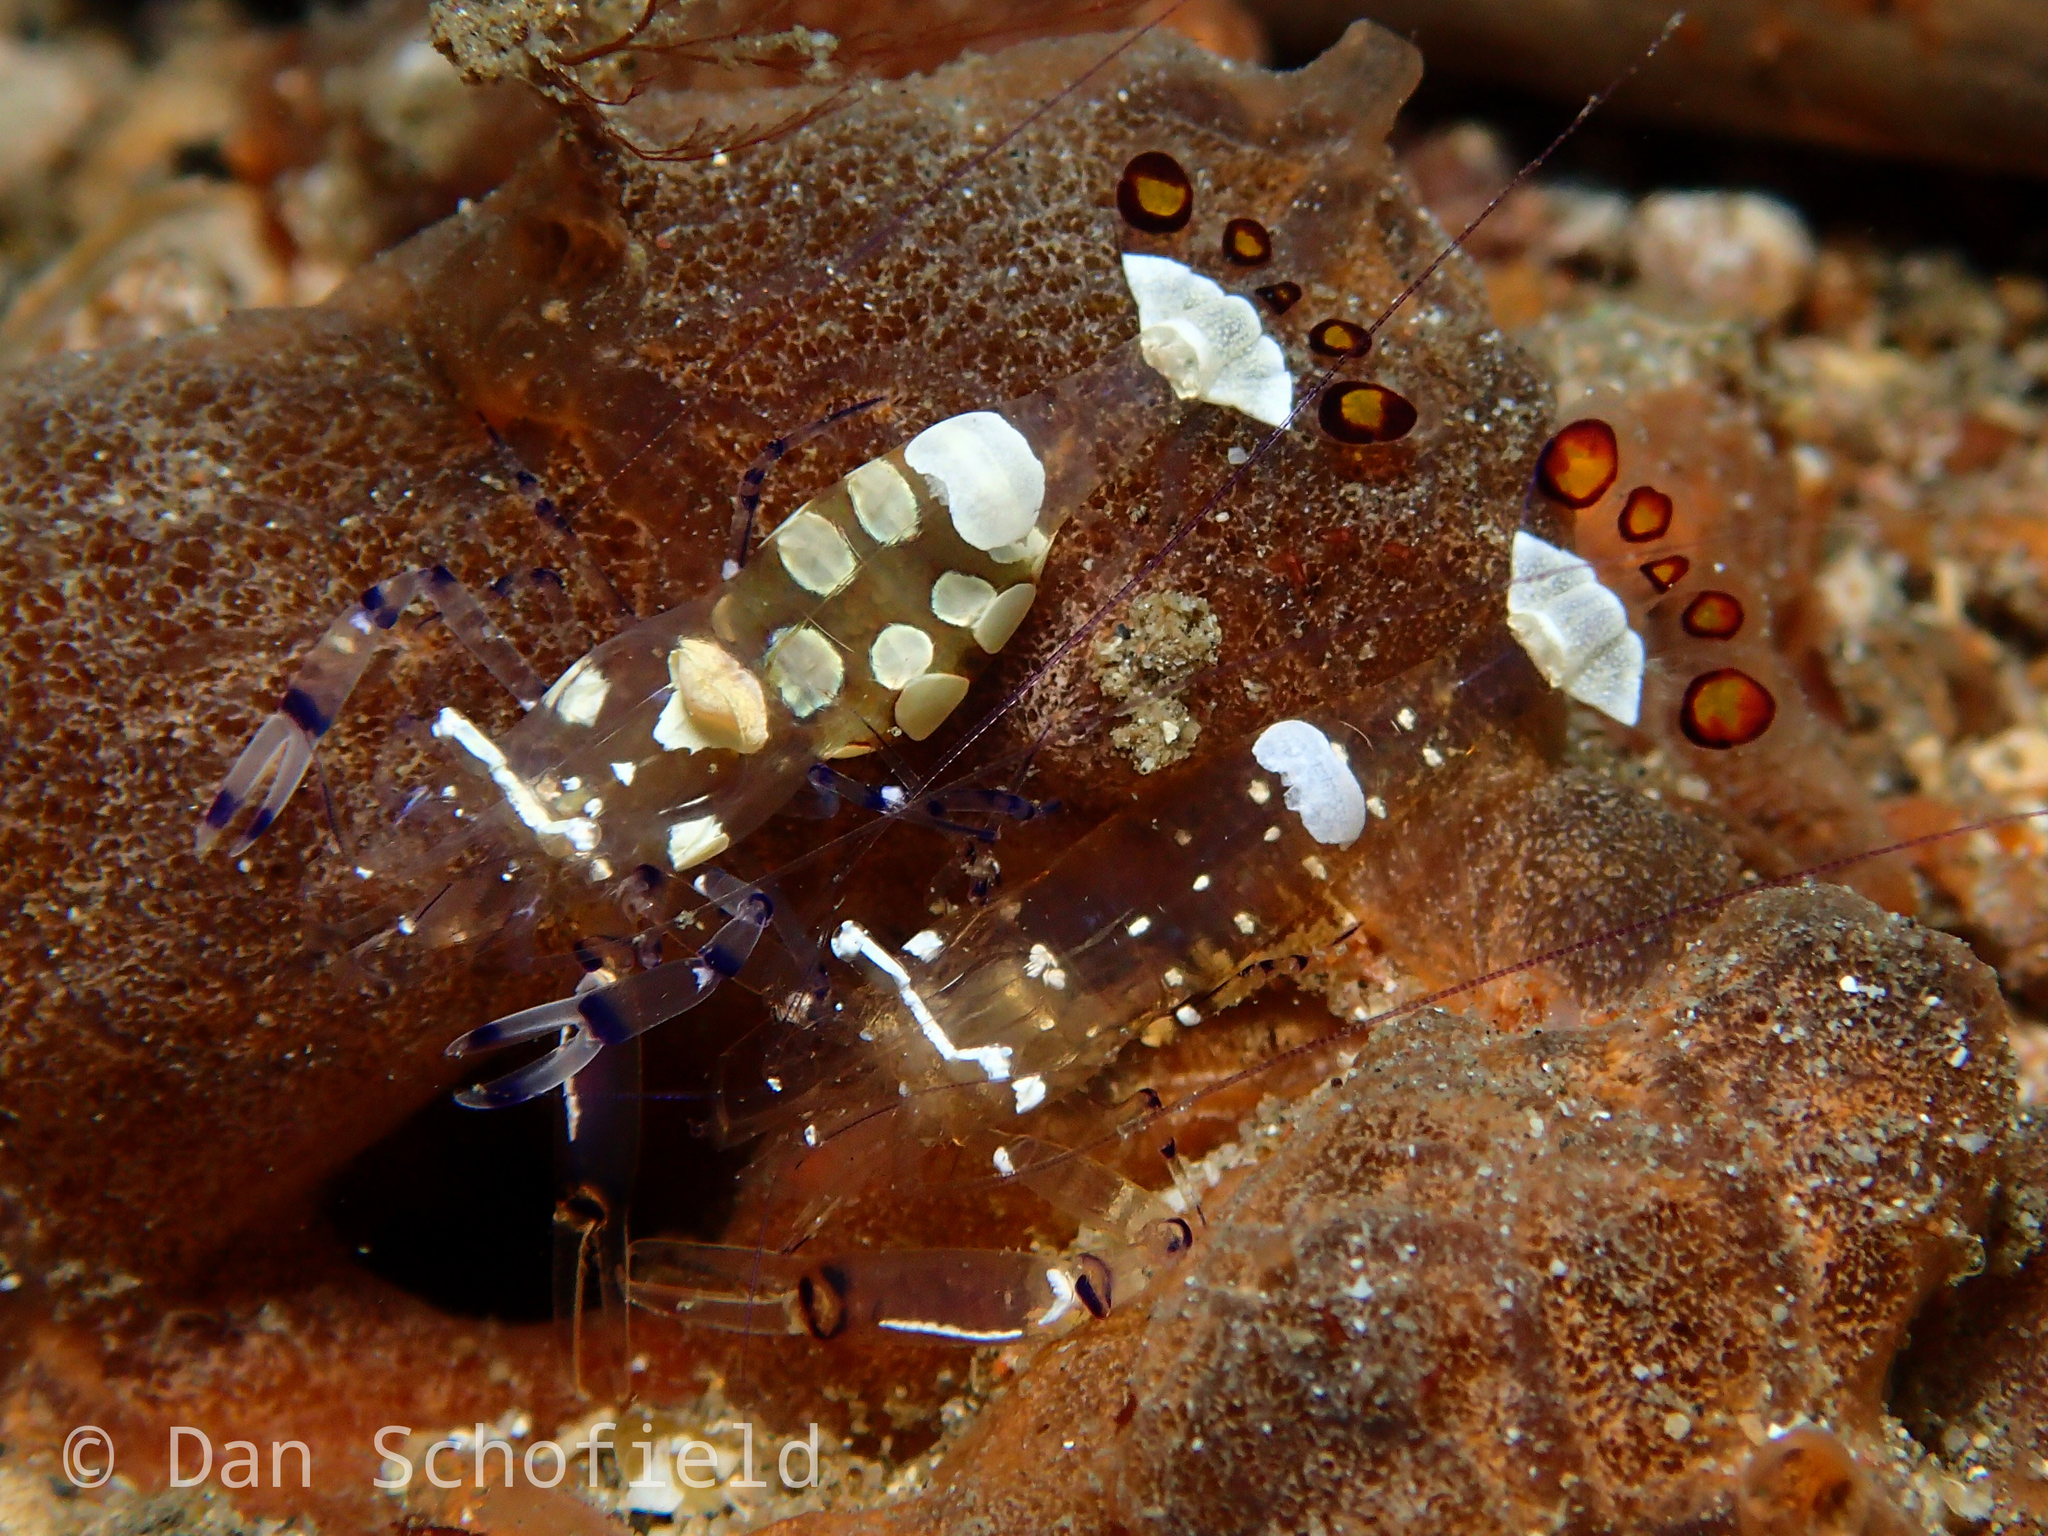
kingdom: Animalia
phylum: Arthropoda
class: Malacostraca
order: Decapoda
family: Palaemonidae
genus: Ancylocaris
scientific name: Ancylocaris brevicarpalis
